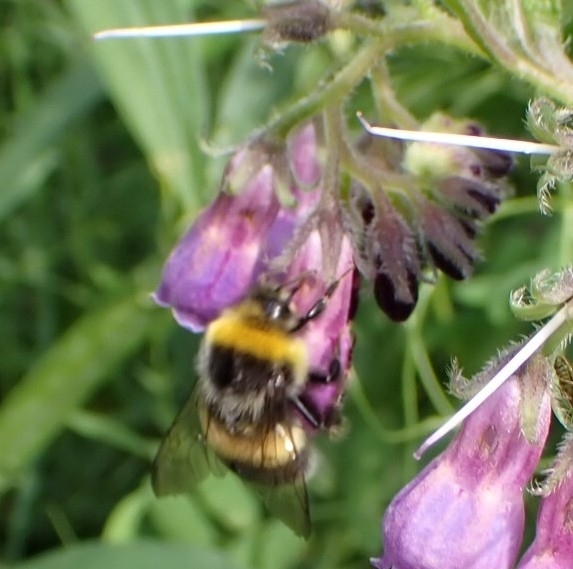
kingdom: Animalia
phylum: Arthropoda
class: Insecta
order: Hymenoptera
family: Apidae
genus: Bombus
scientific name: Bombus lucorum
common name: White-tailed bumblebee
